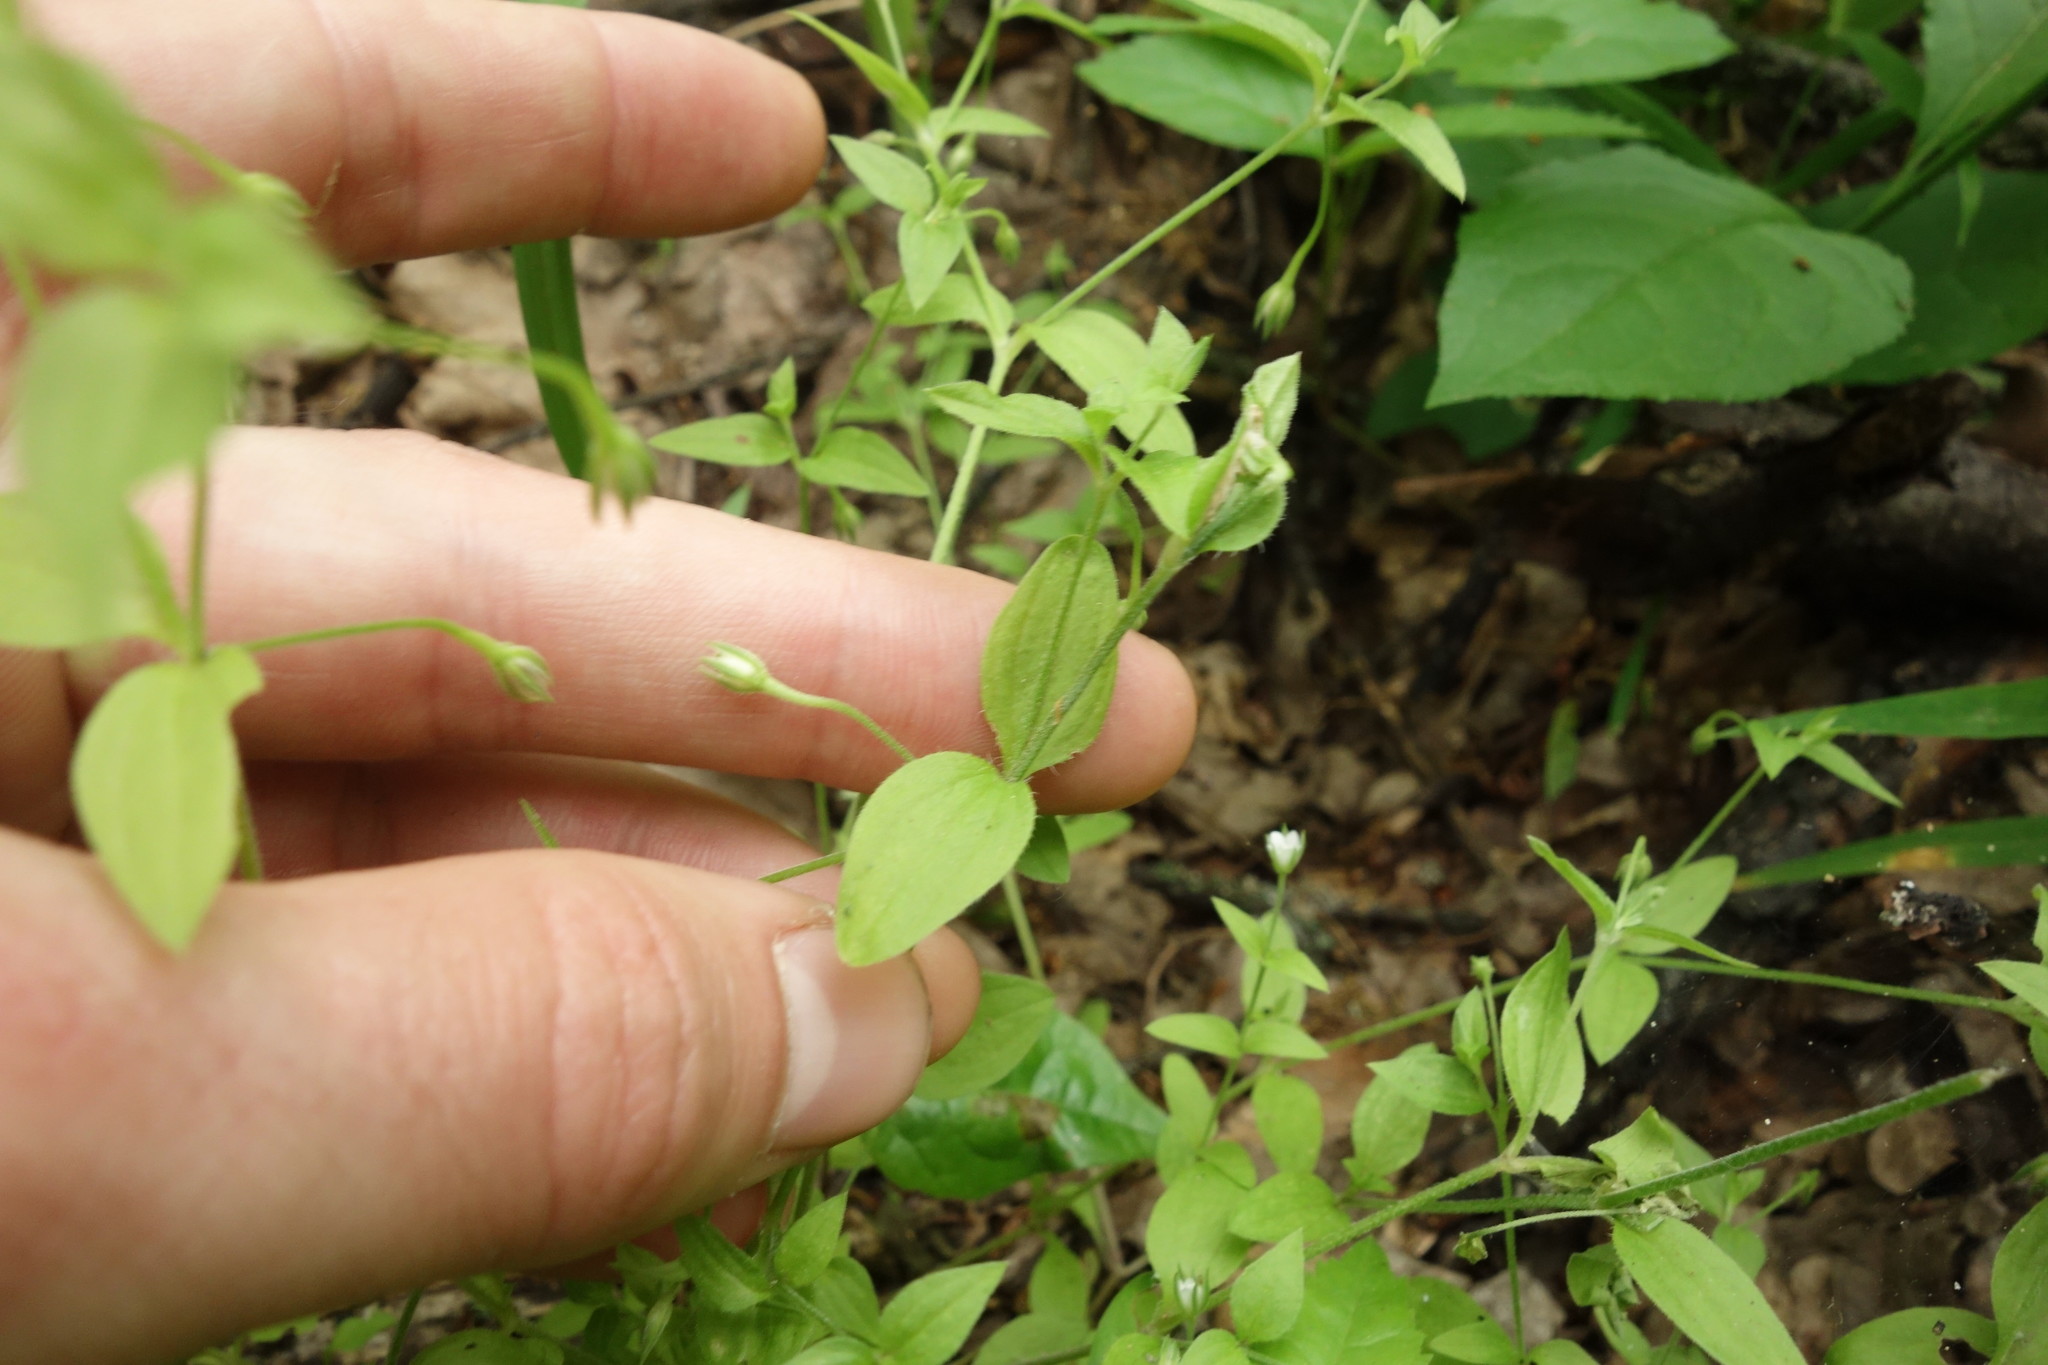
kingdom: Plantae
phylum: Tracheophyta
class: Magnoliopsida
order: Caryophyllales
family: Caryophyllaceae
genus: Moehringia
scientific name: Moehringia trinervia
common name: Three-nerved sandwort
